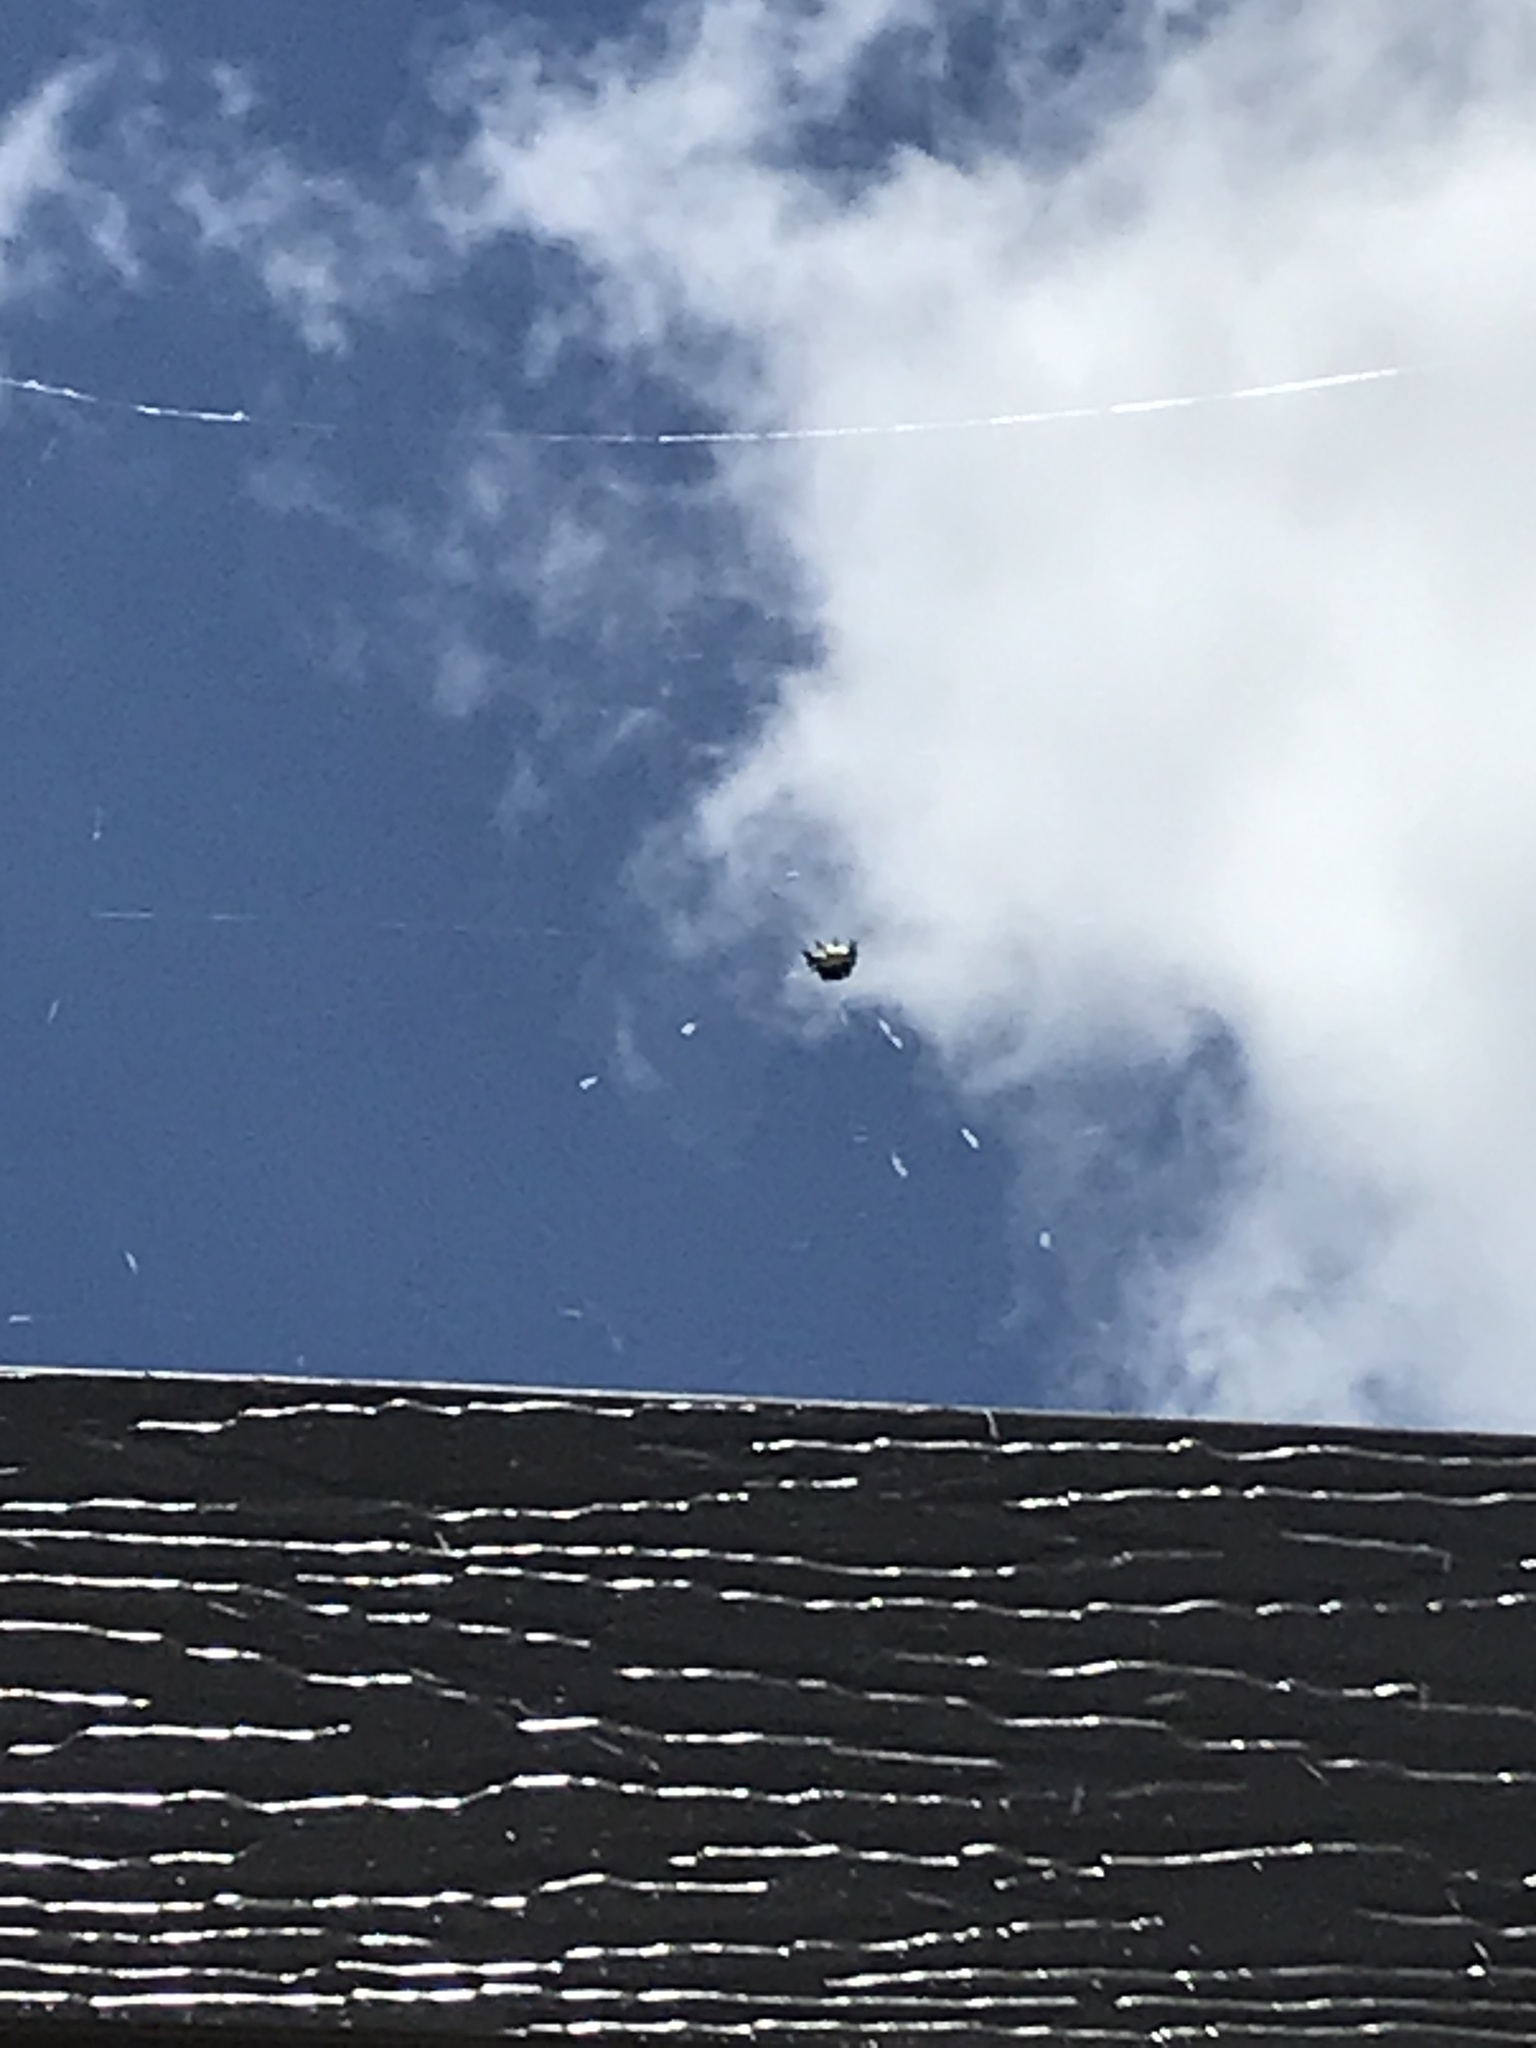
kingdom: Animalia
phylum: Arthropoda
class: Arachnida
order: Araneae
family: Araneidae
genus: Gasteracantha
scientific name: Gasteracantha cancriformis
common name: Orb weavers
